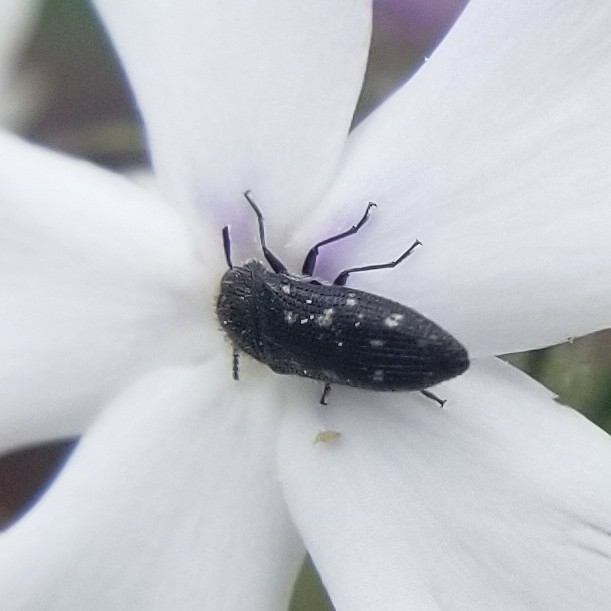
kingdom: Animalia
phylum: Arthropoda
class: Insecta
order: Coleoptera
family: Buprestidae
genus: Acmaeodera
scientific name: Acmaeodera tubulus
